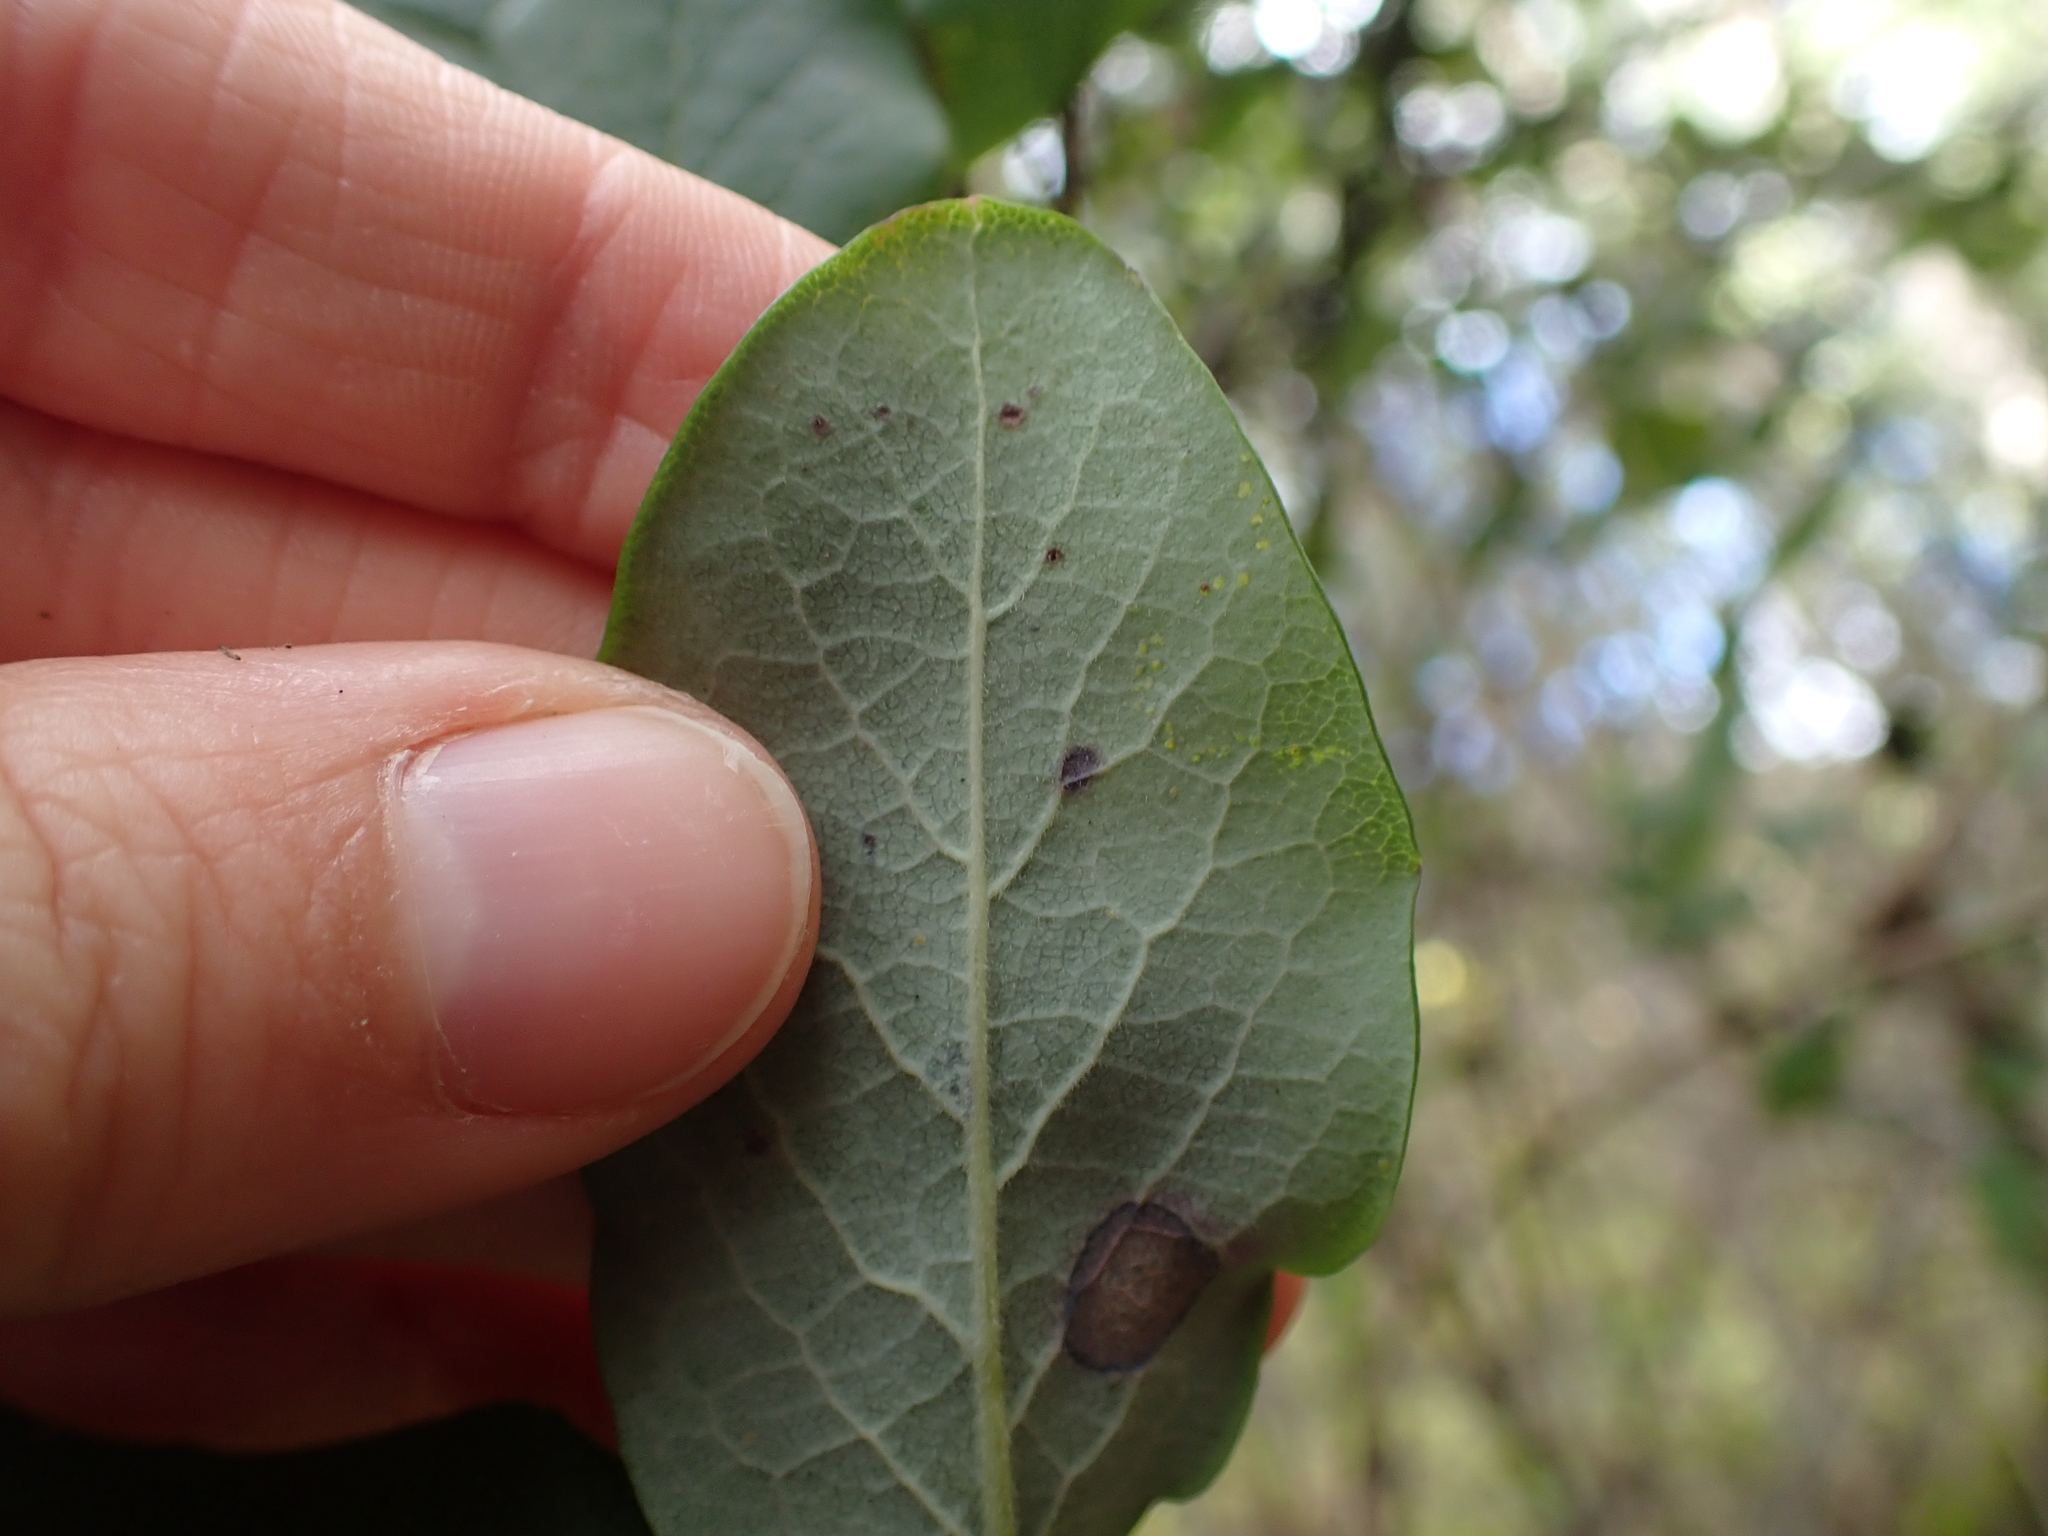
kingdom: Plantae
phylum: Tracheophyta
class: Magnoliopsida
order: Dipsacales
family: Caprifoliaceae
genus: Lonicera
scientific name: Lonicera hispidula
